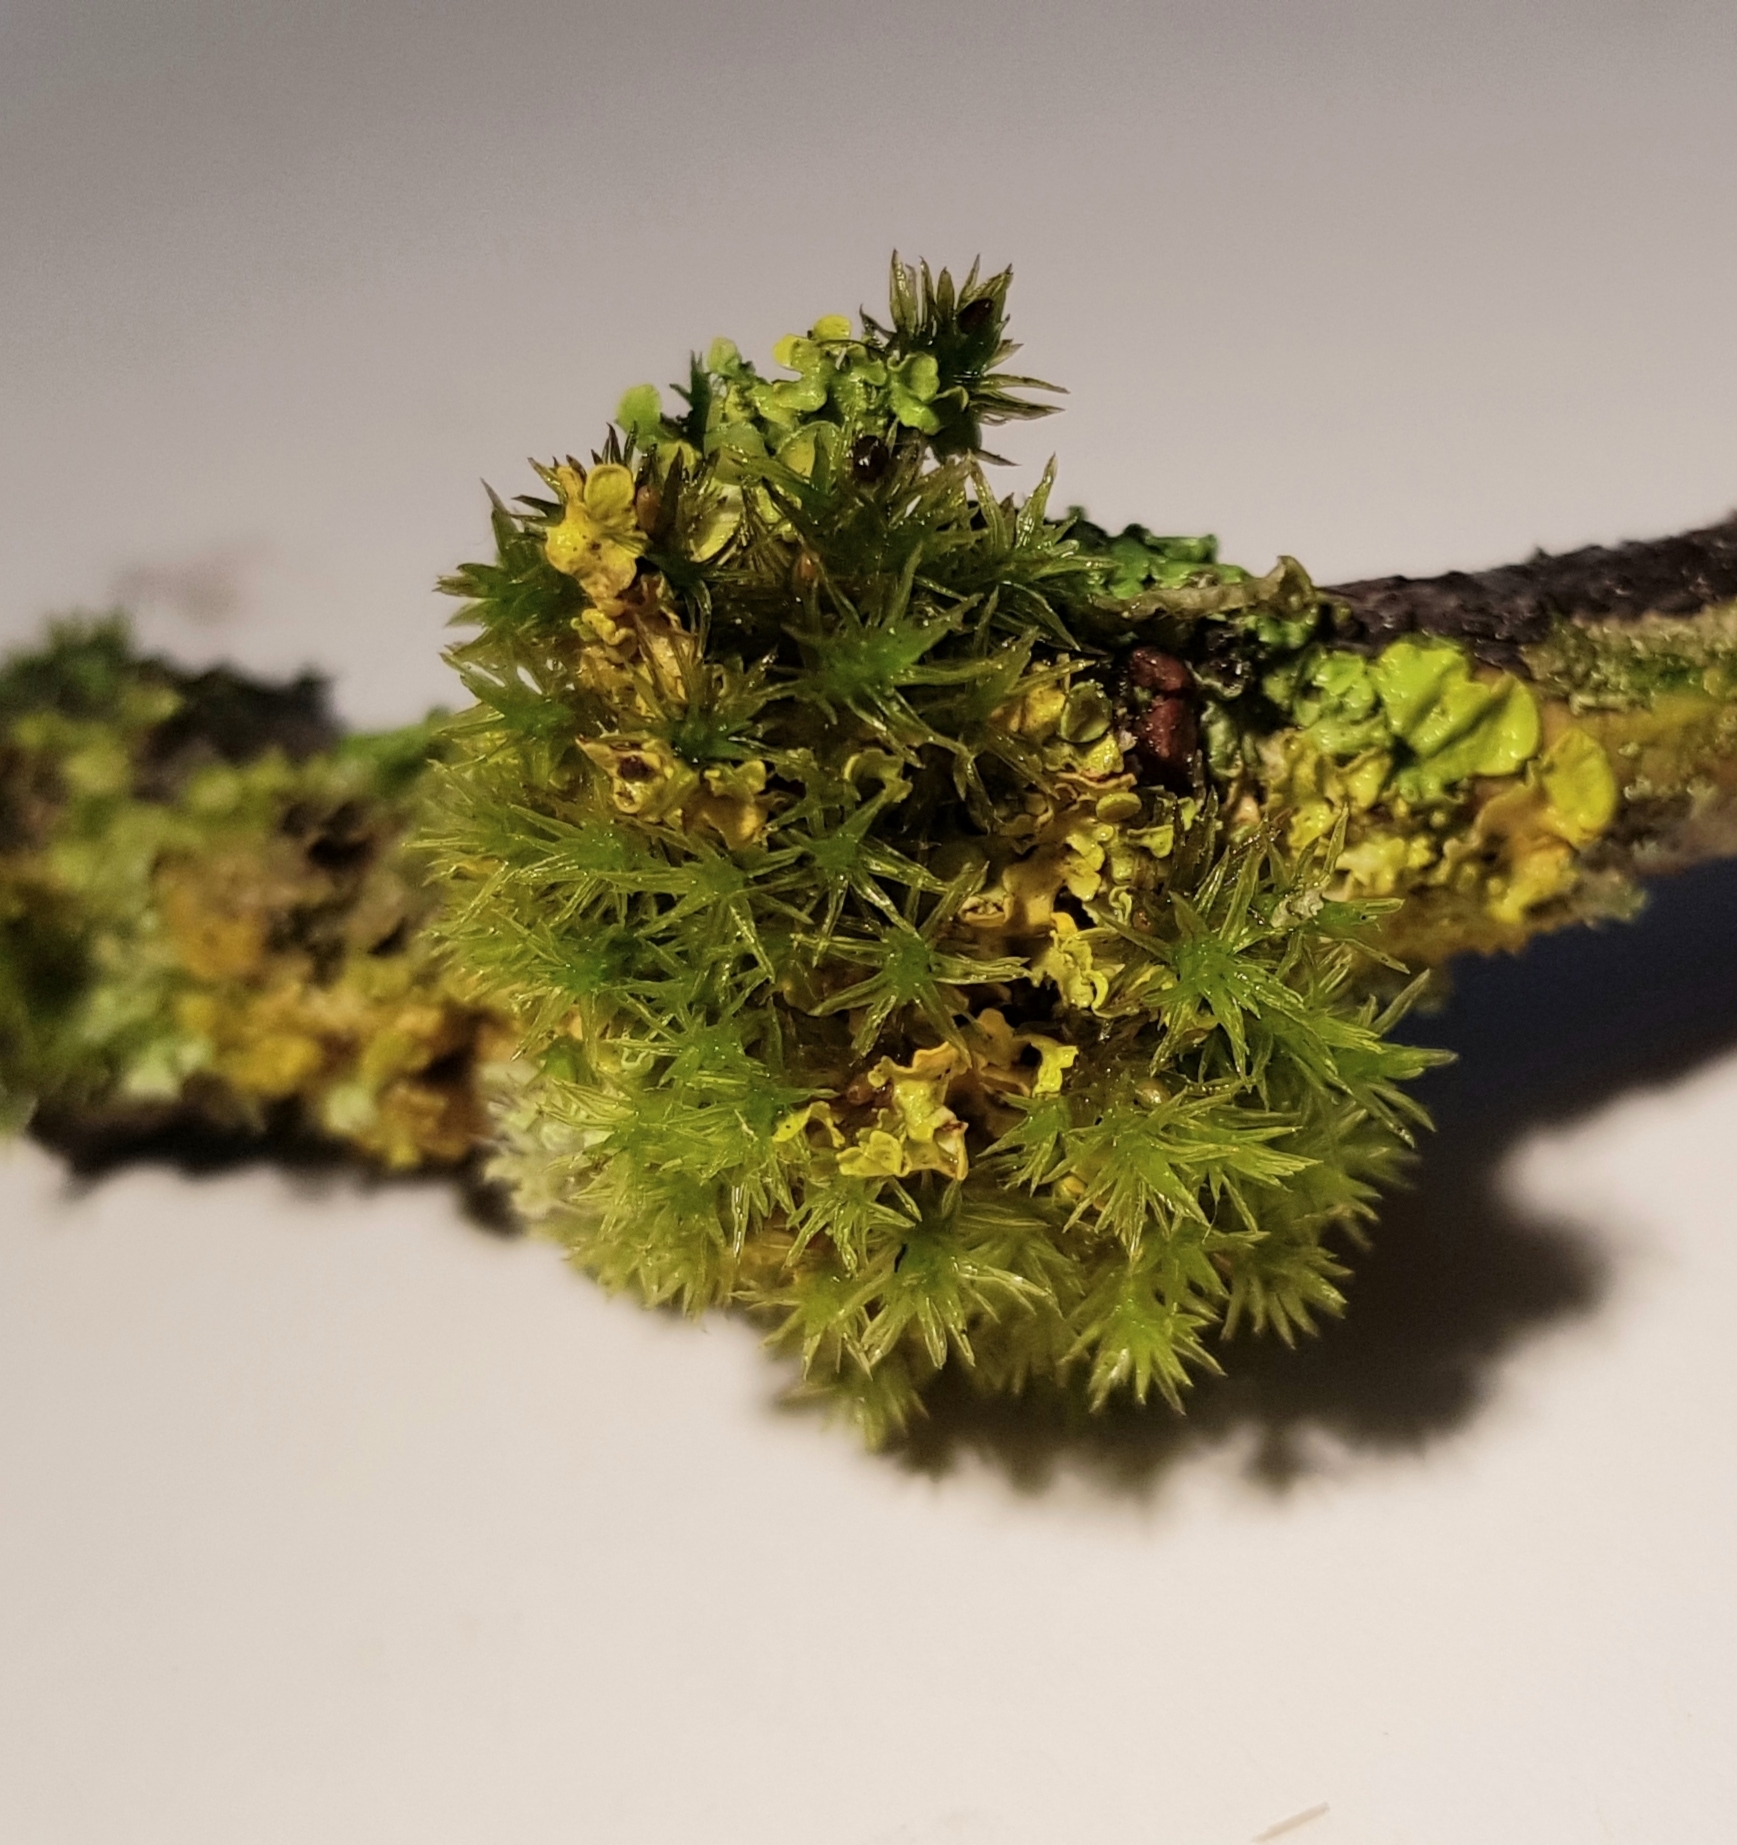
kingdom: Plantae
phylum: Bryophyta
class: Bryopsida
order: Orthotrichales
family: Orthotrichaceae
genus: Lewinskya
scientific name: Lewinskya affinis
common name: Wood bristle-moss
